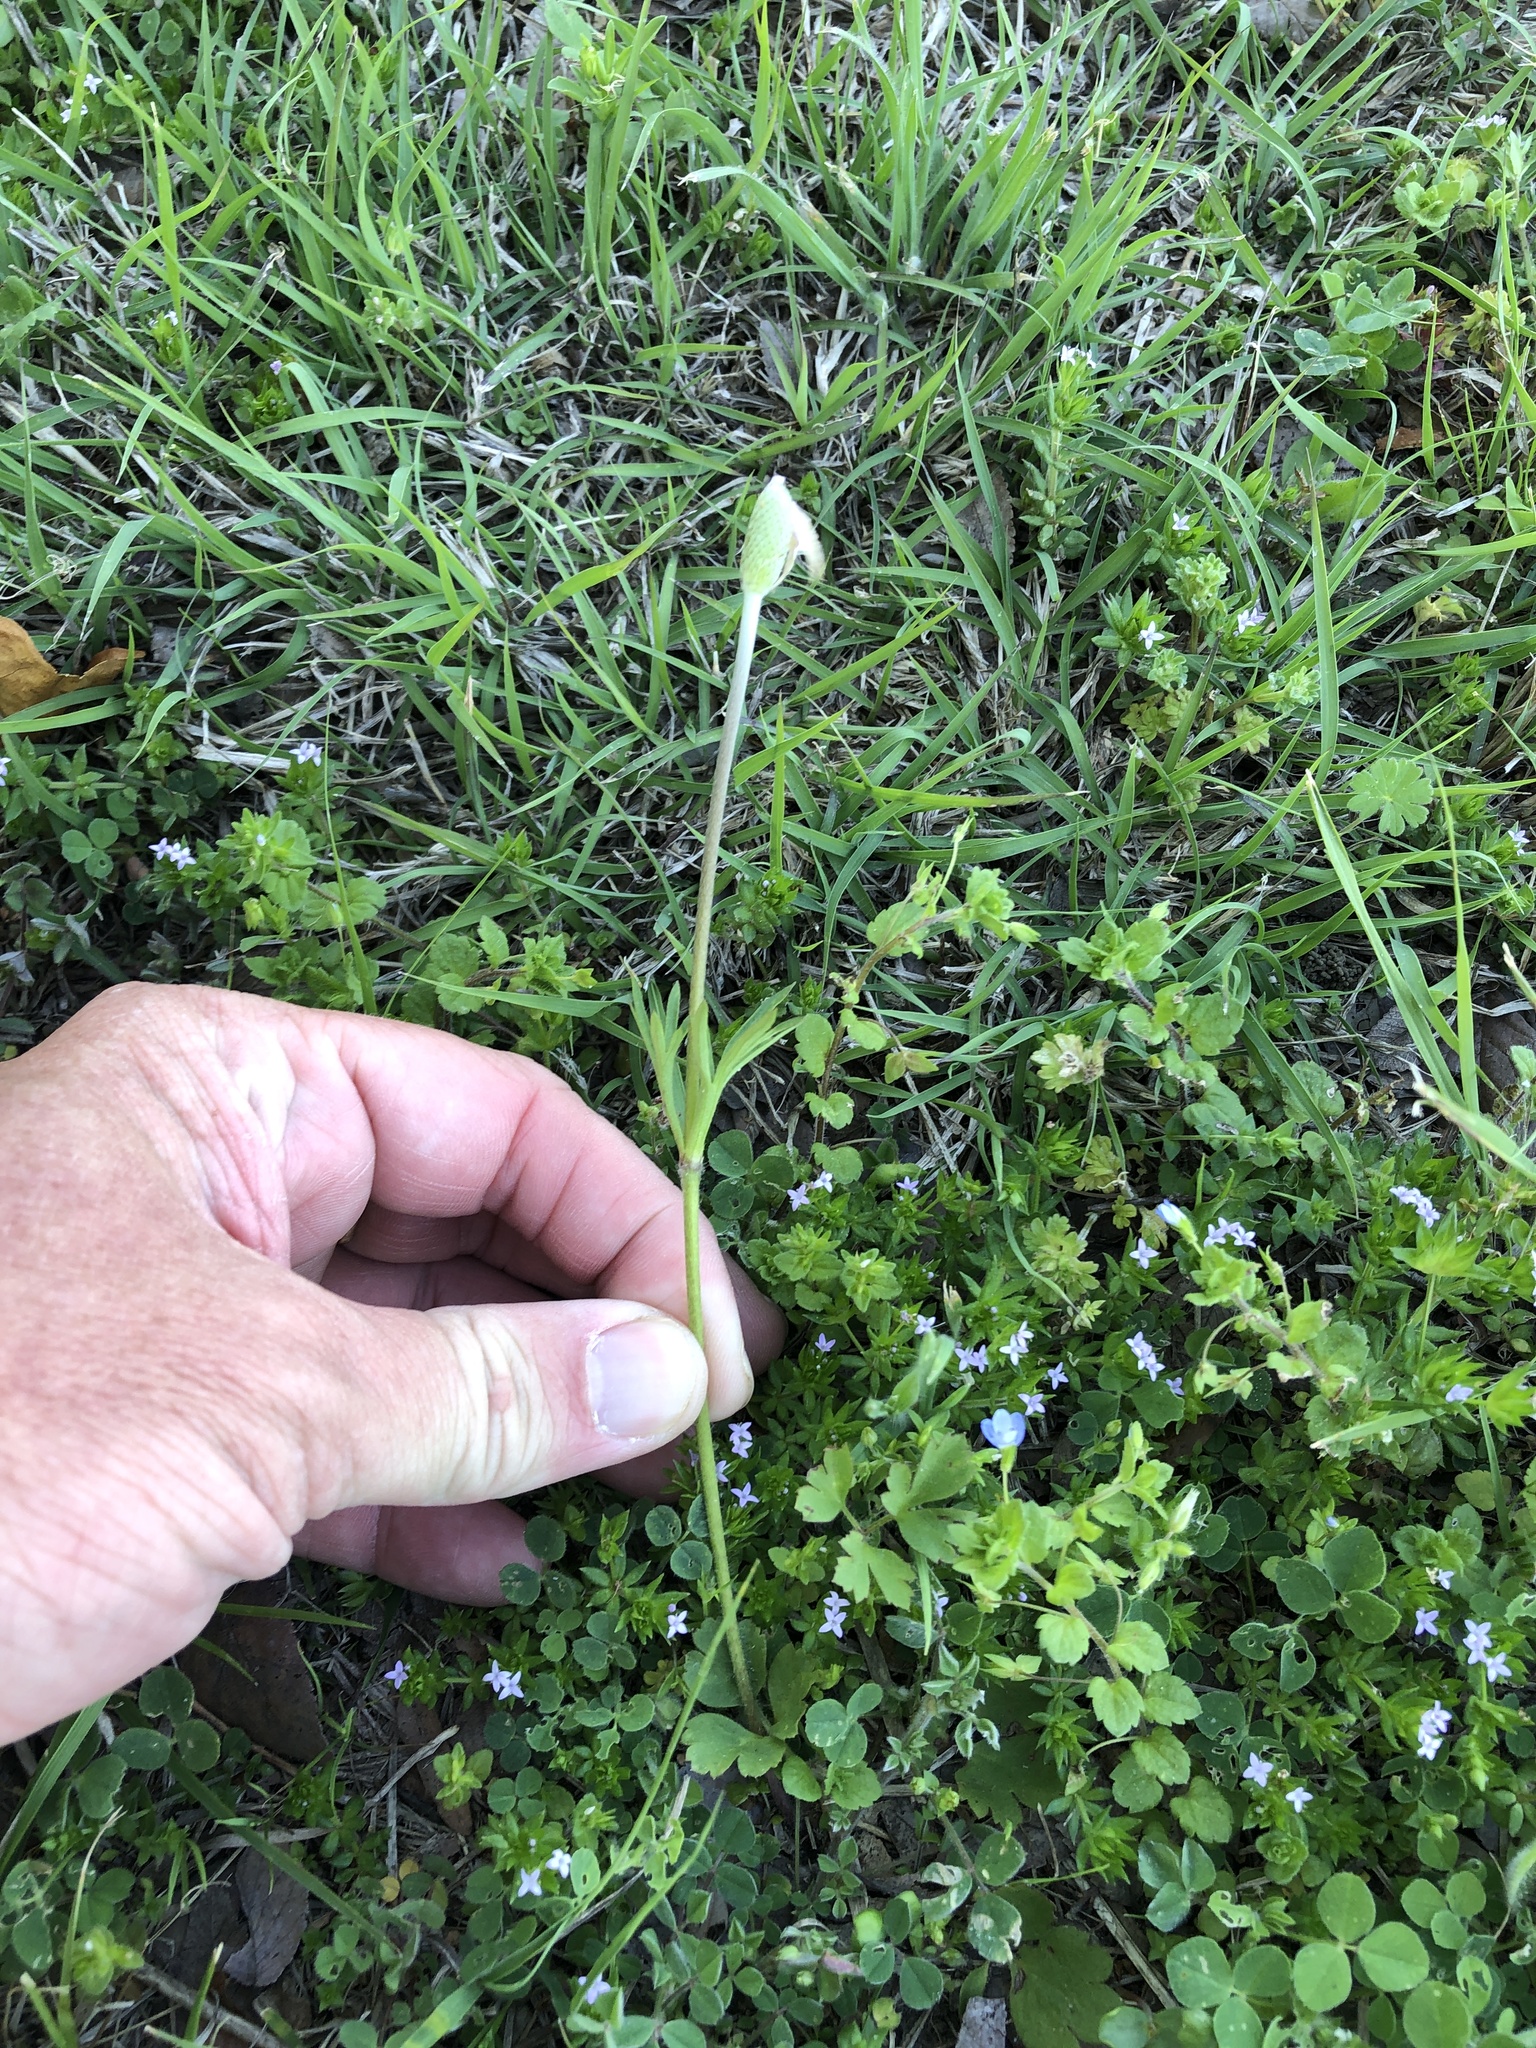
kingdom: Plantae
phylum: Tracheophyta
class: Magnoliopsida
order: Ranunculales
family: Ranunculaceae
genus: Anemone
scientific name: Anemone berlandieri
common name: Ten-petal anemone
